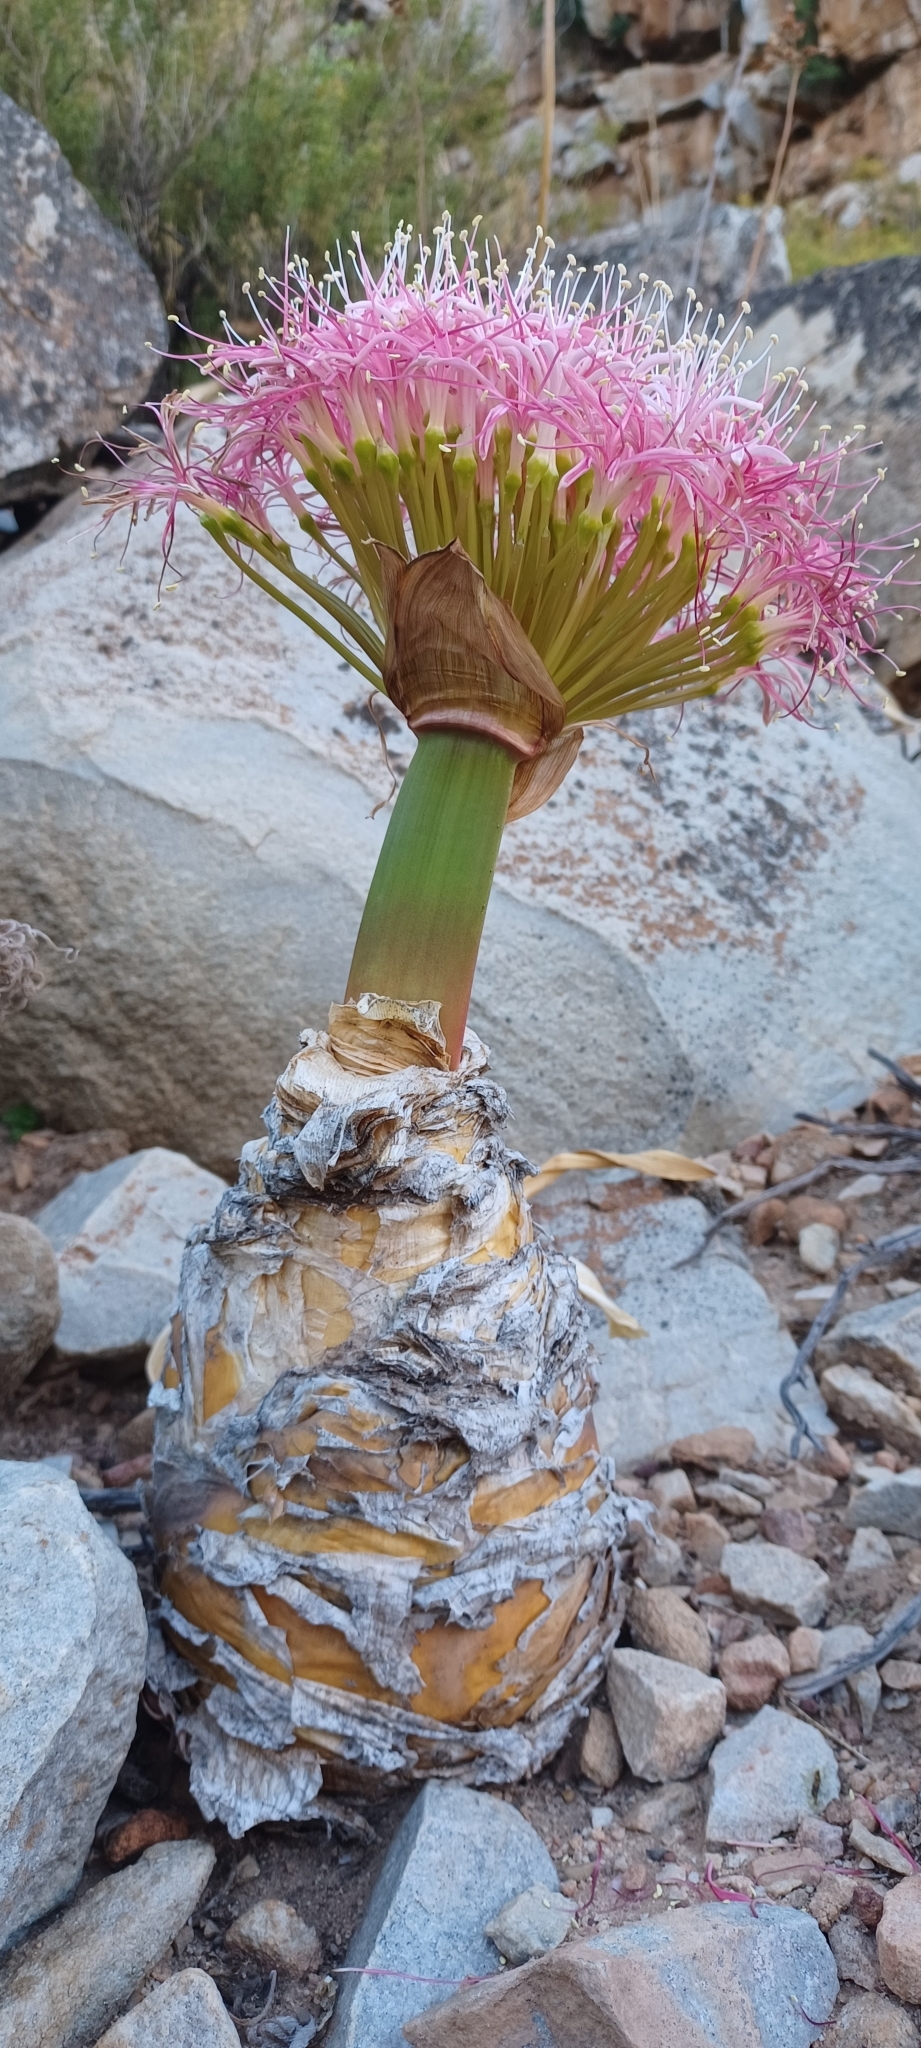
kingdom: Plantae
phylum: Tracheophyta
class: Liliopsida
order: Asparagales
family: Amaryllidaceae
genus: Boophone
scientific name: Boophone disticha
